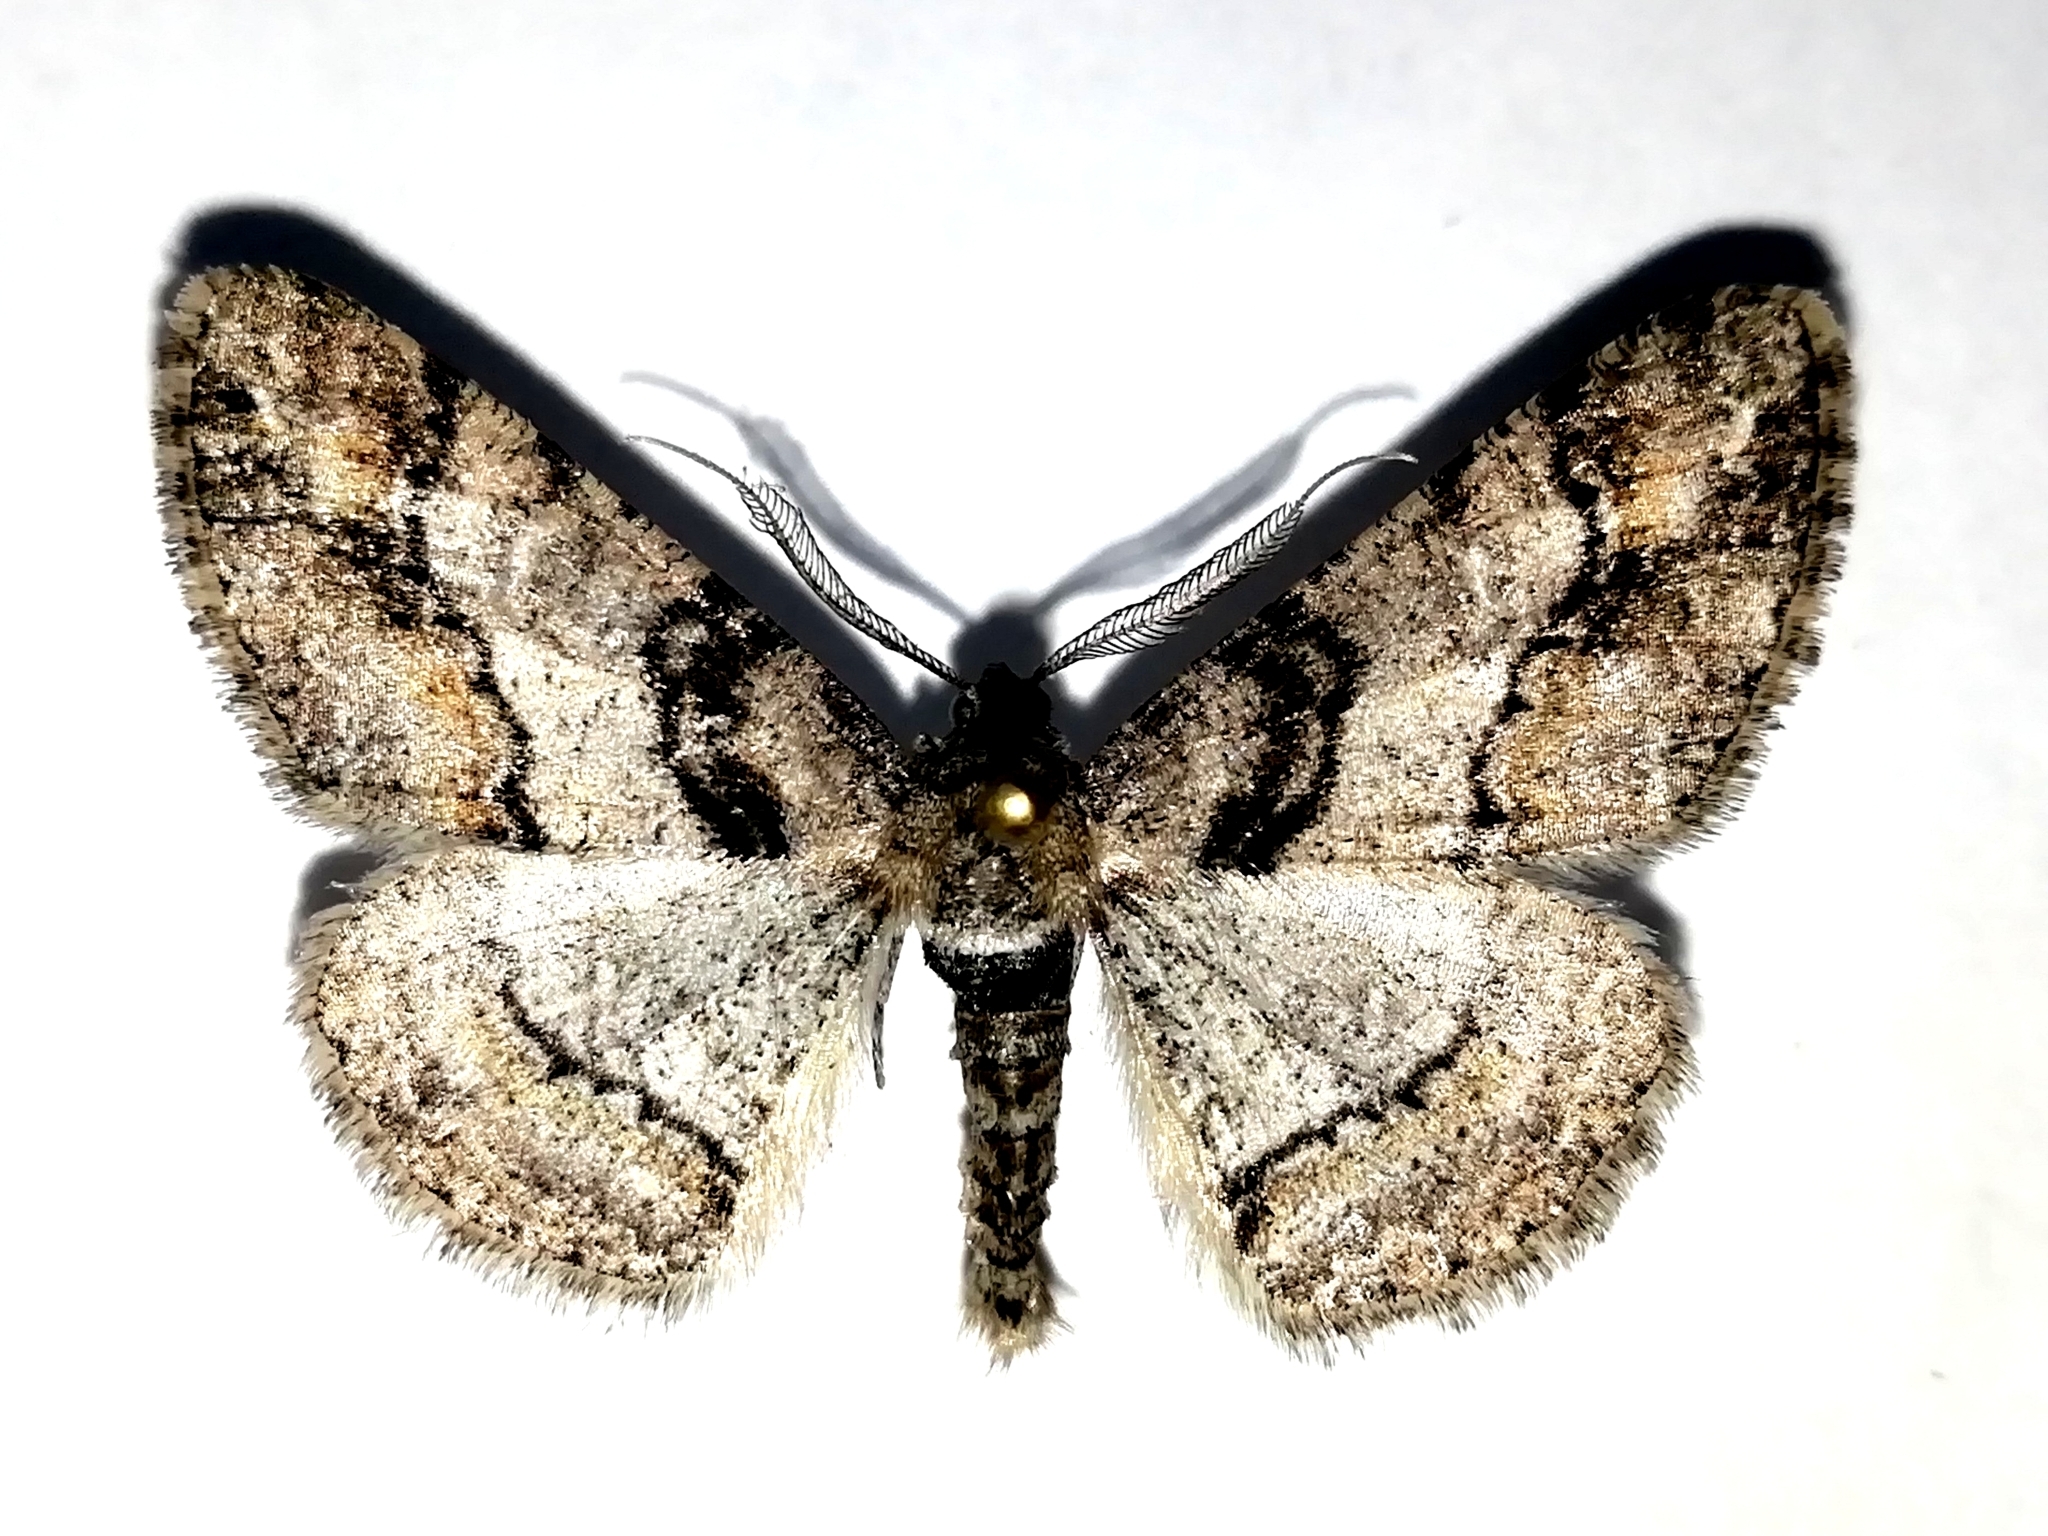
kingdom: Animalia
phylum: Arthropoda
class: Insecta
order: Lepidoptera
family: Geometridae
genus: Cleora
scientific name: Cleora cinctaria
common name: Ringed carpet
